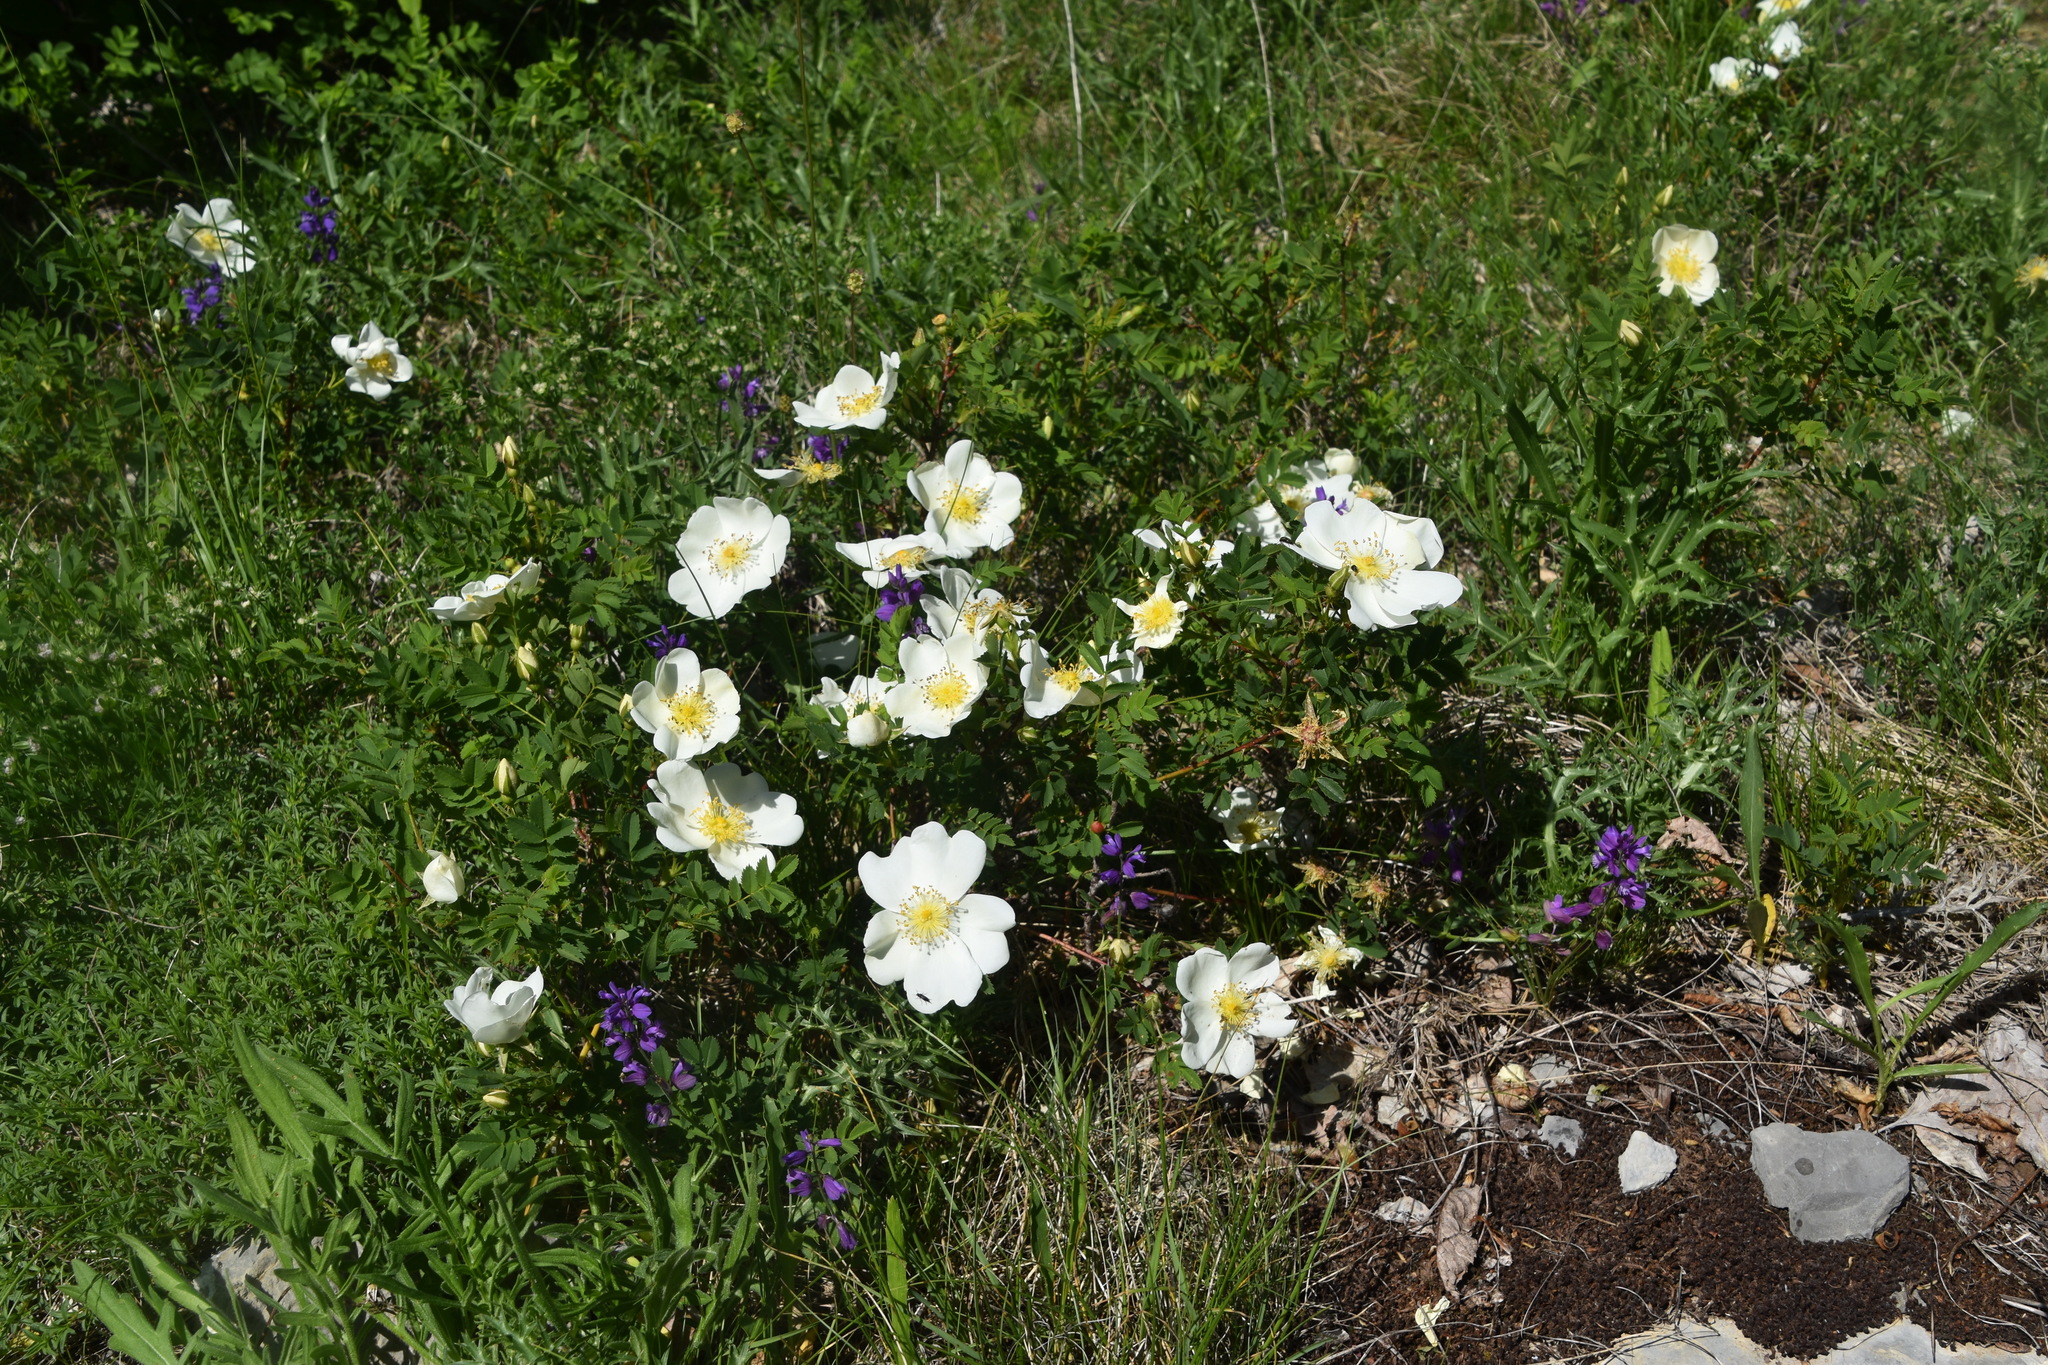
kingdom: Plantae
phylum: Tracheophyta
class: Magnoliopsida
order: Rosales
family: Rosaceae
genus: Rosa
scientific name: Rosa spinosissima
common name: Burnet rose
